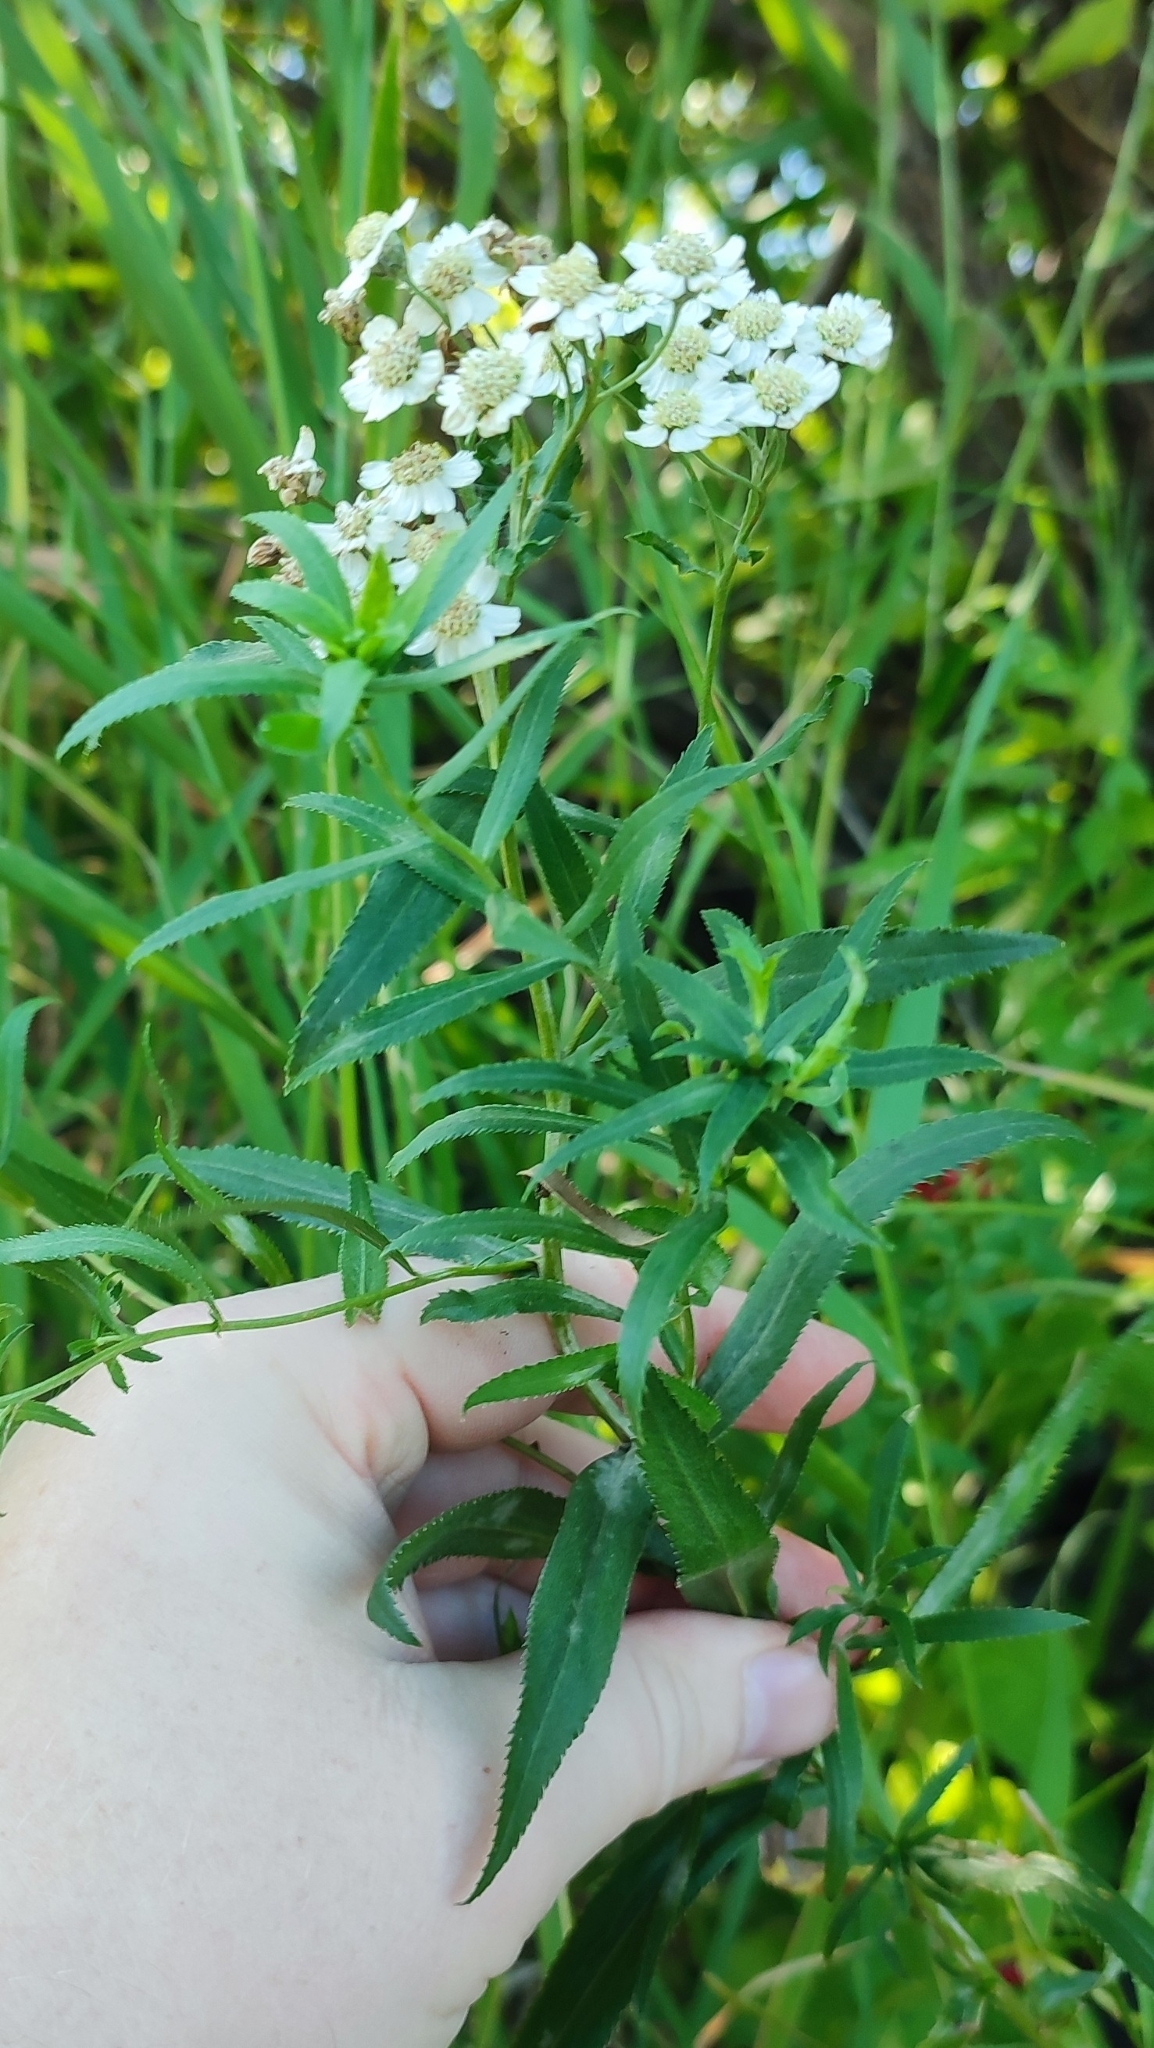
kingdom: Plantae
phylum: Tracheophyta
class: Magnoliopsida
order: Asterales
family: Asteraceae
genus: Achillea
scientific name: Achillea salicifolia
